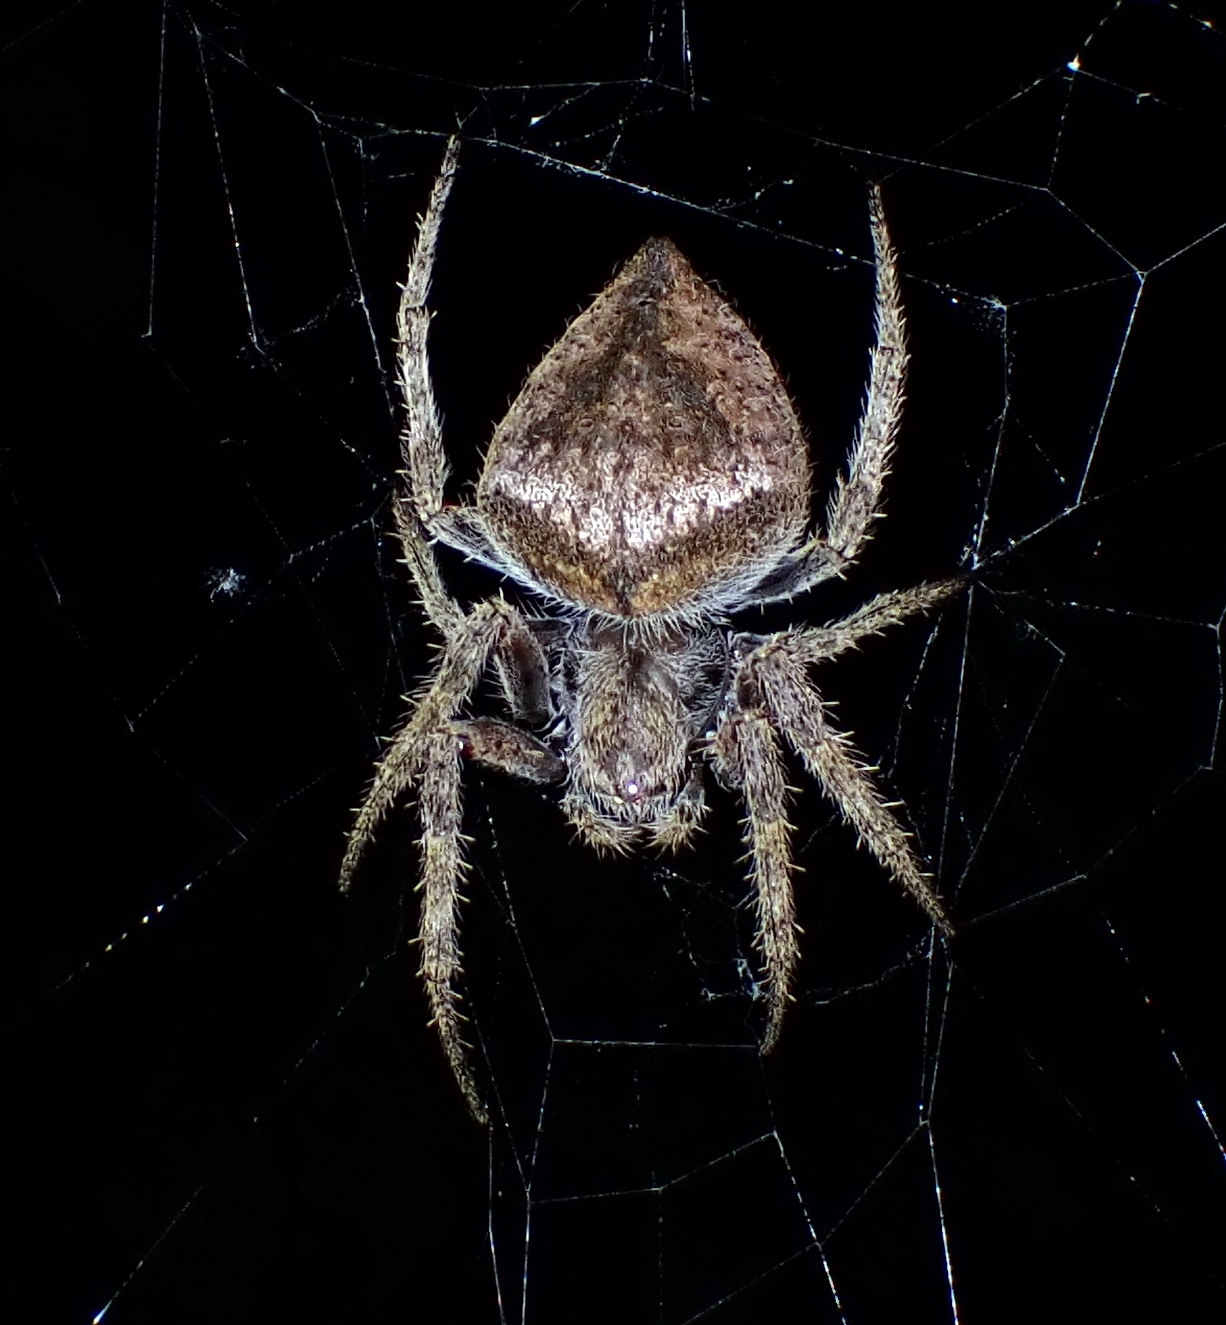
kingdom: Animalia
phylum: Arthropoda
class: Arachnida
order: Araneae
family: Araneidae
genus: Eriophora
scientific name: Eriophora edax
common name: Orb weavers
